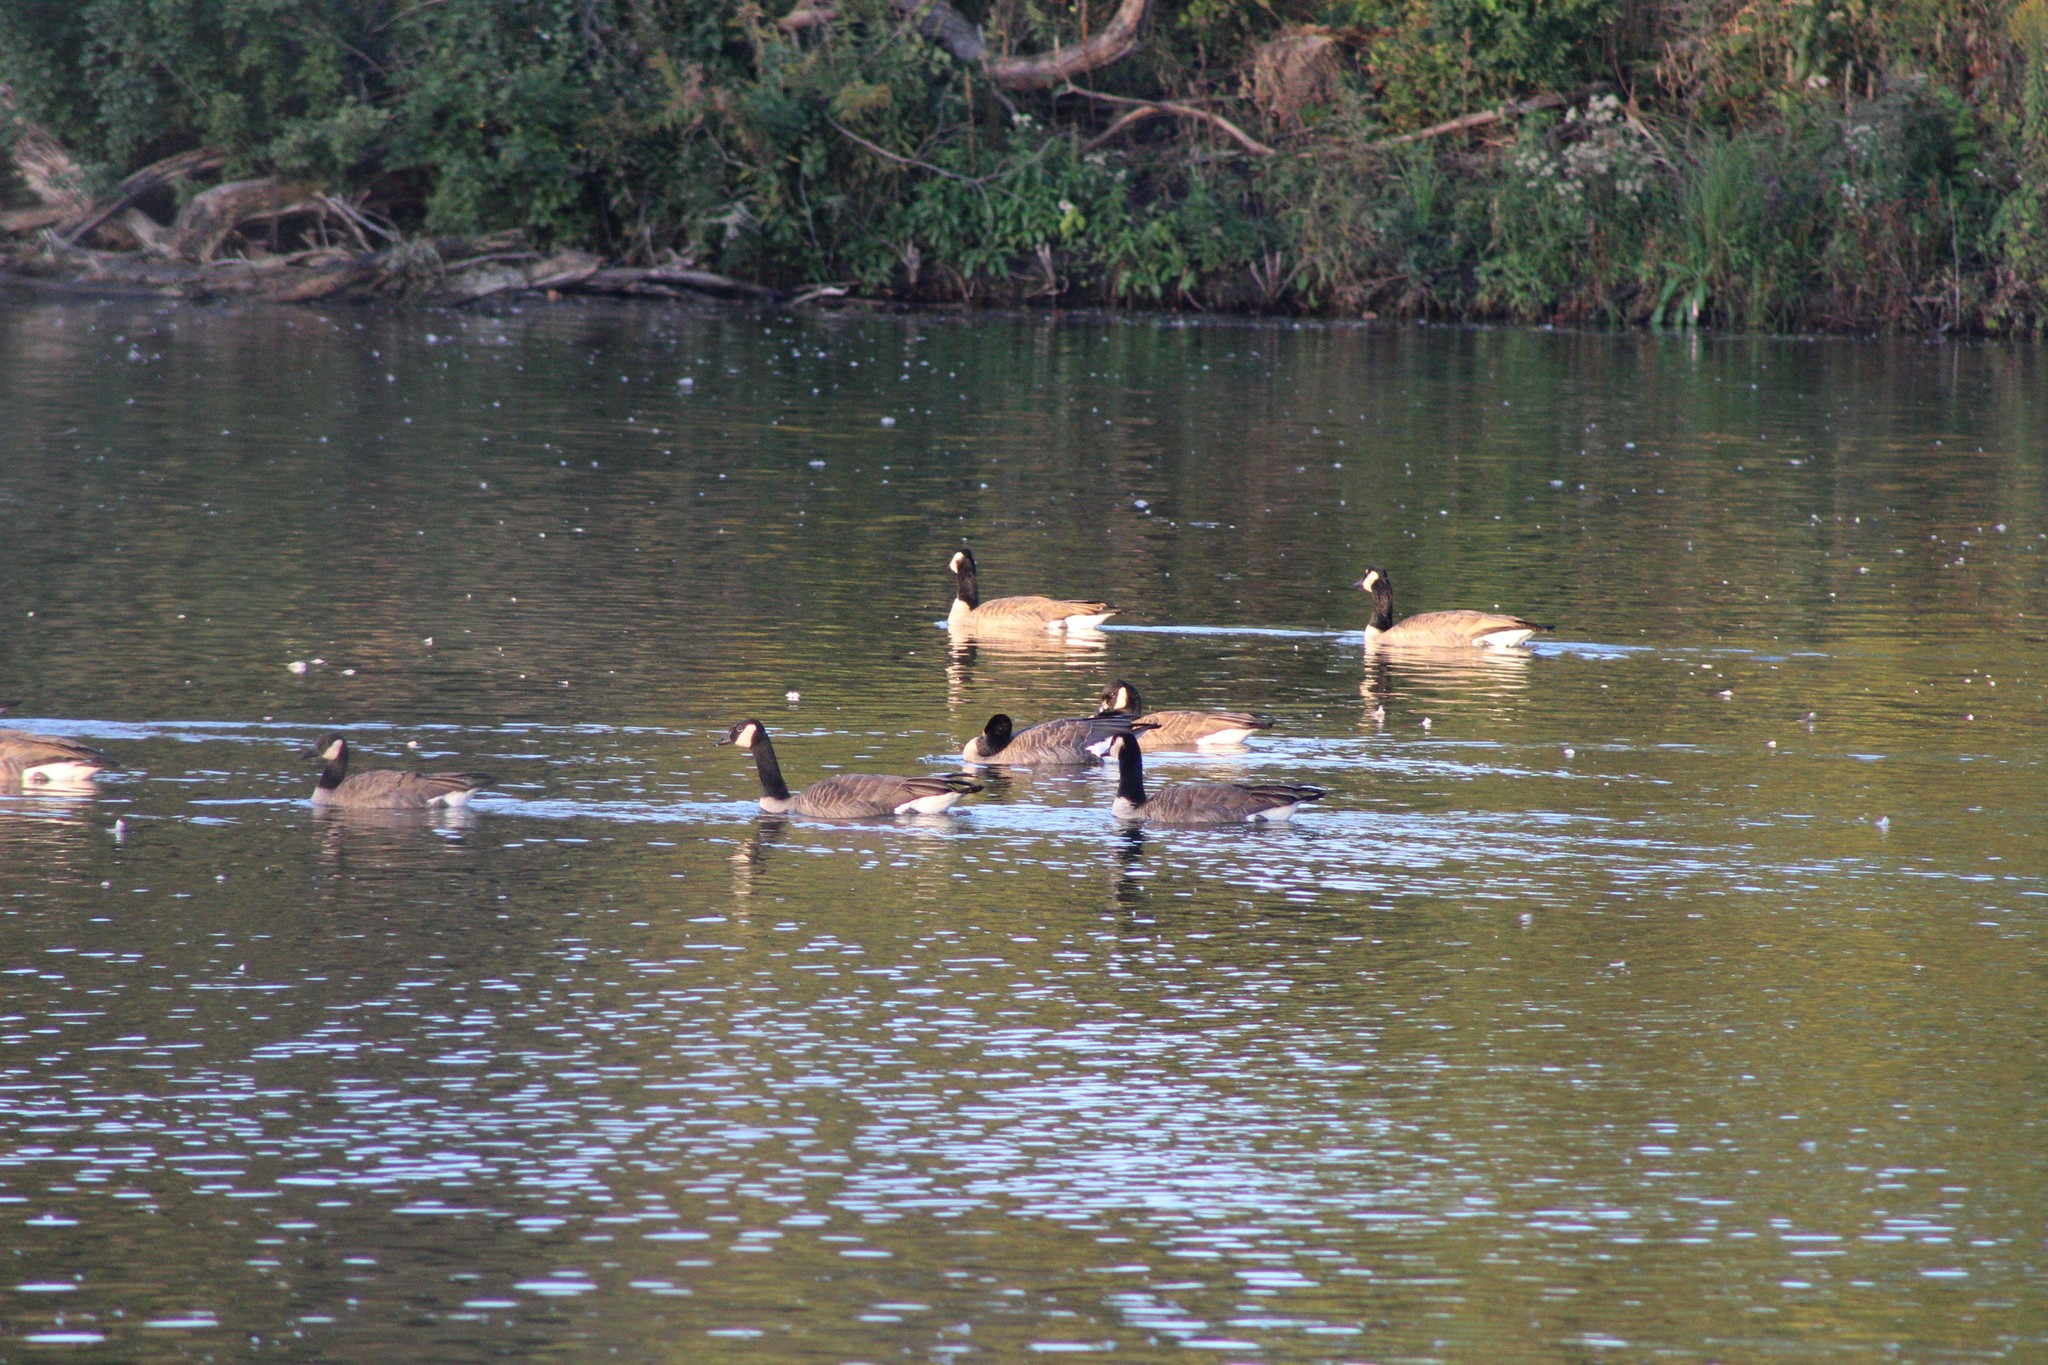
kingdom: Animalia
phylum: Chordata
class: Aves
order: Anseriformes
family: Anatidae
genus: Branta
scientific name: Branta canadensis
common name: Canada goose
